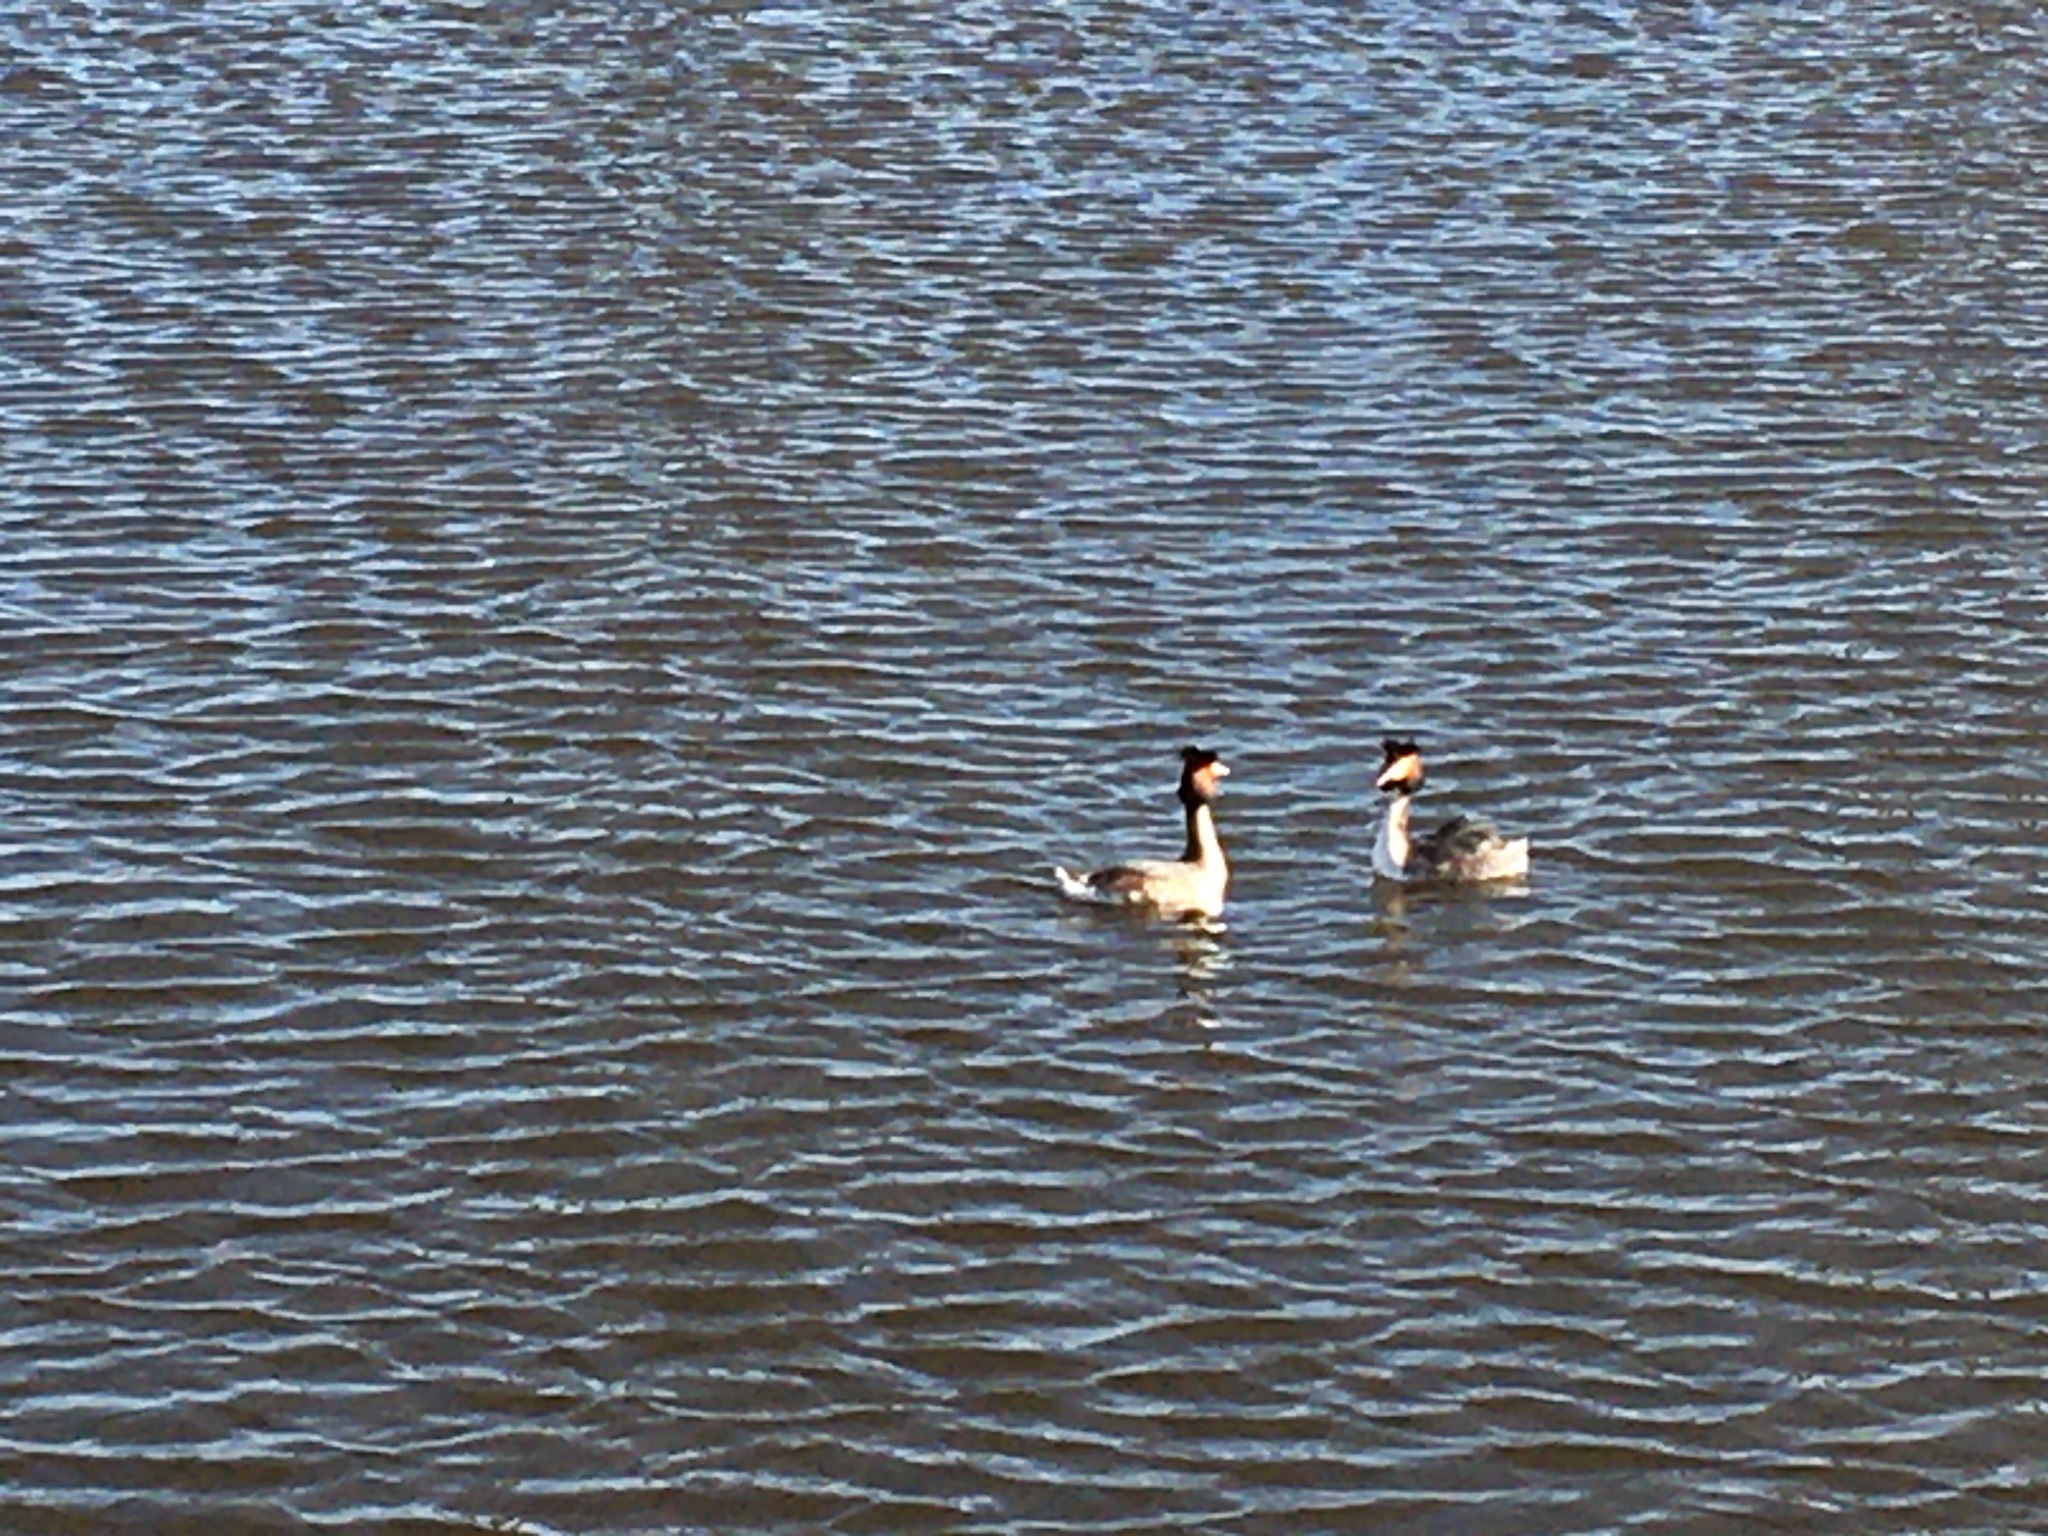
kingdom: Animalia
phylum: Chordata
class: Aves
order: Podicipediformes
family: Podicipedidae
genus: Podiceps
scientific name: Podiceps cristatus
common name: Great crested grebe
